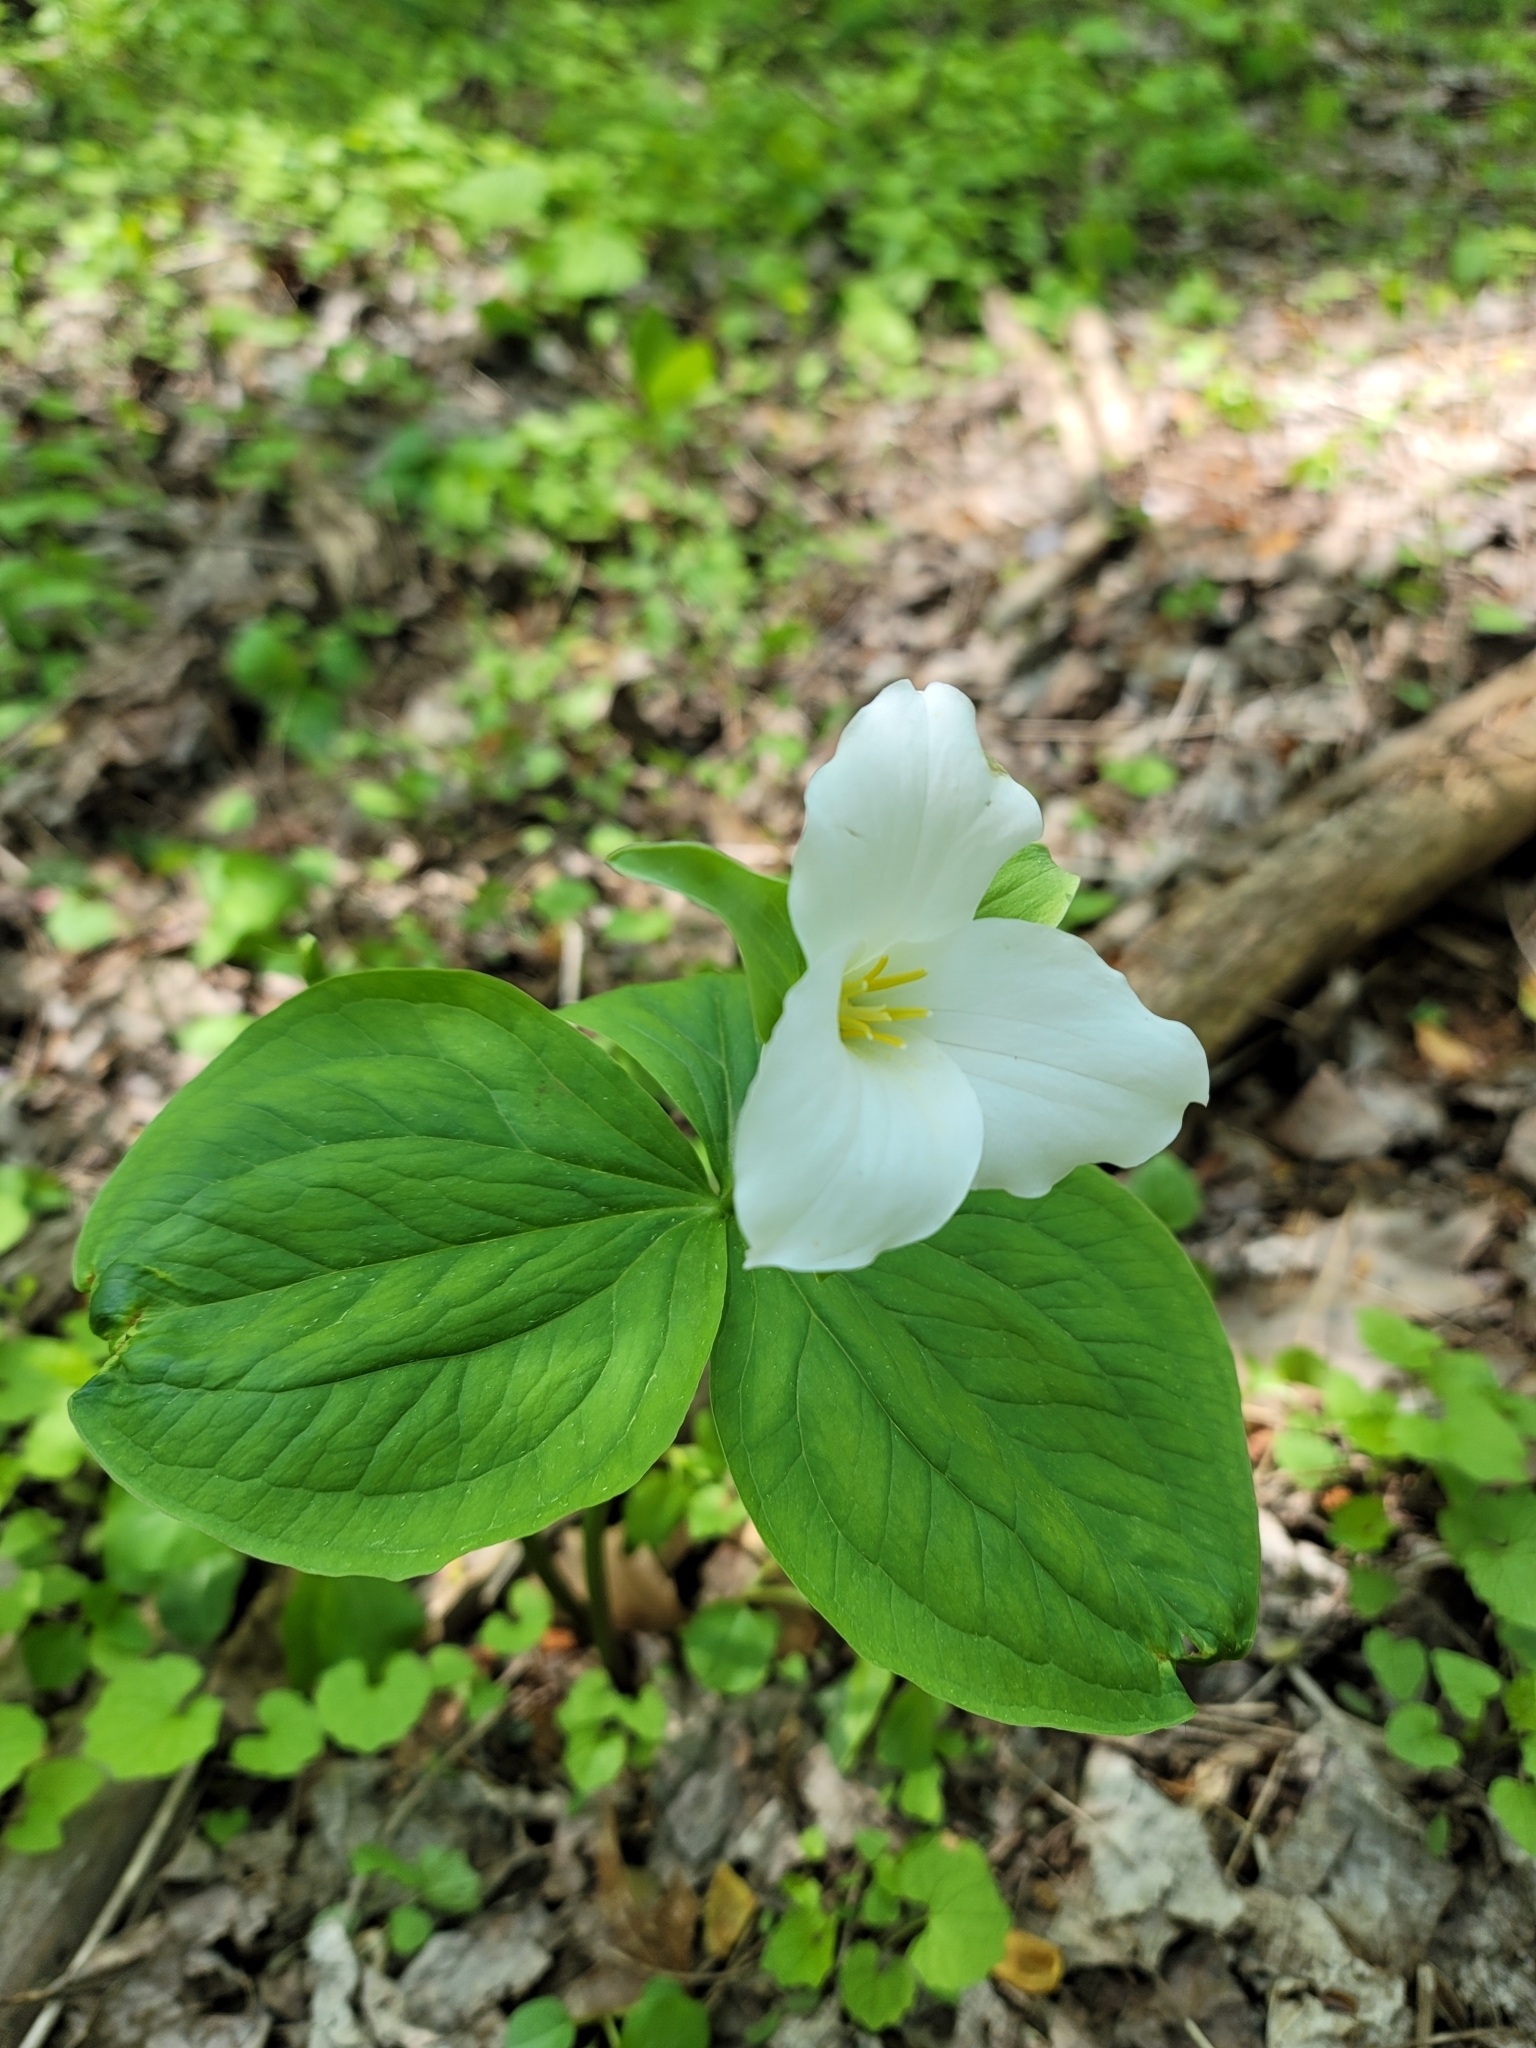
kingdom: Plantae
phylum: Tracheophyta
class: Liliopsida
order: Liliales
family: Melanthiaceae
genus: Trillium
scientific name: Trillium grandiflorum
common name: Great white trillium
